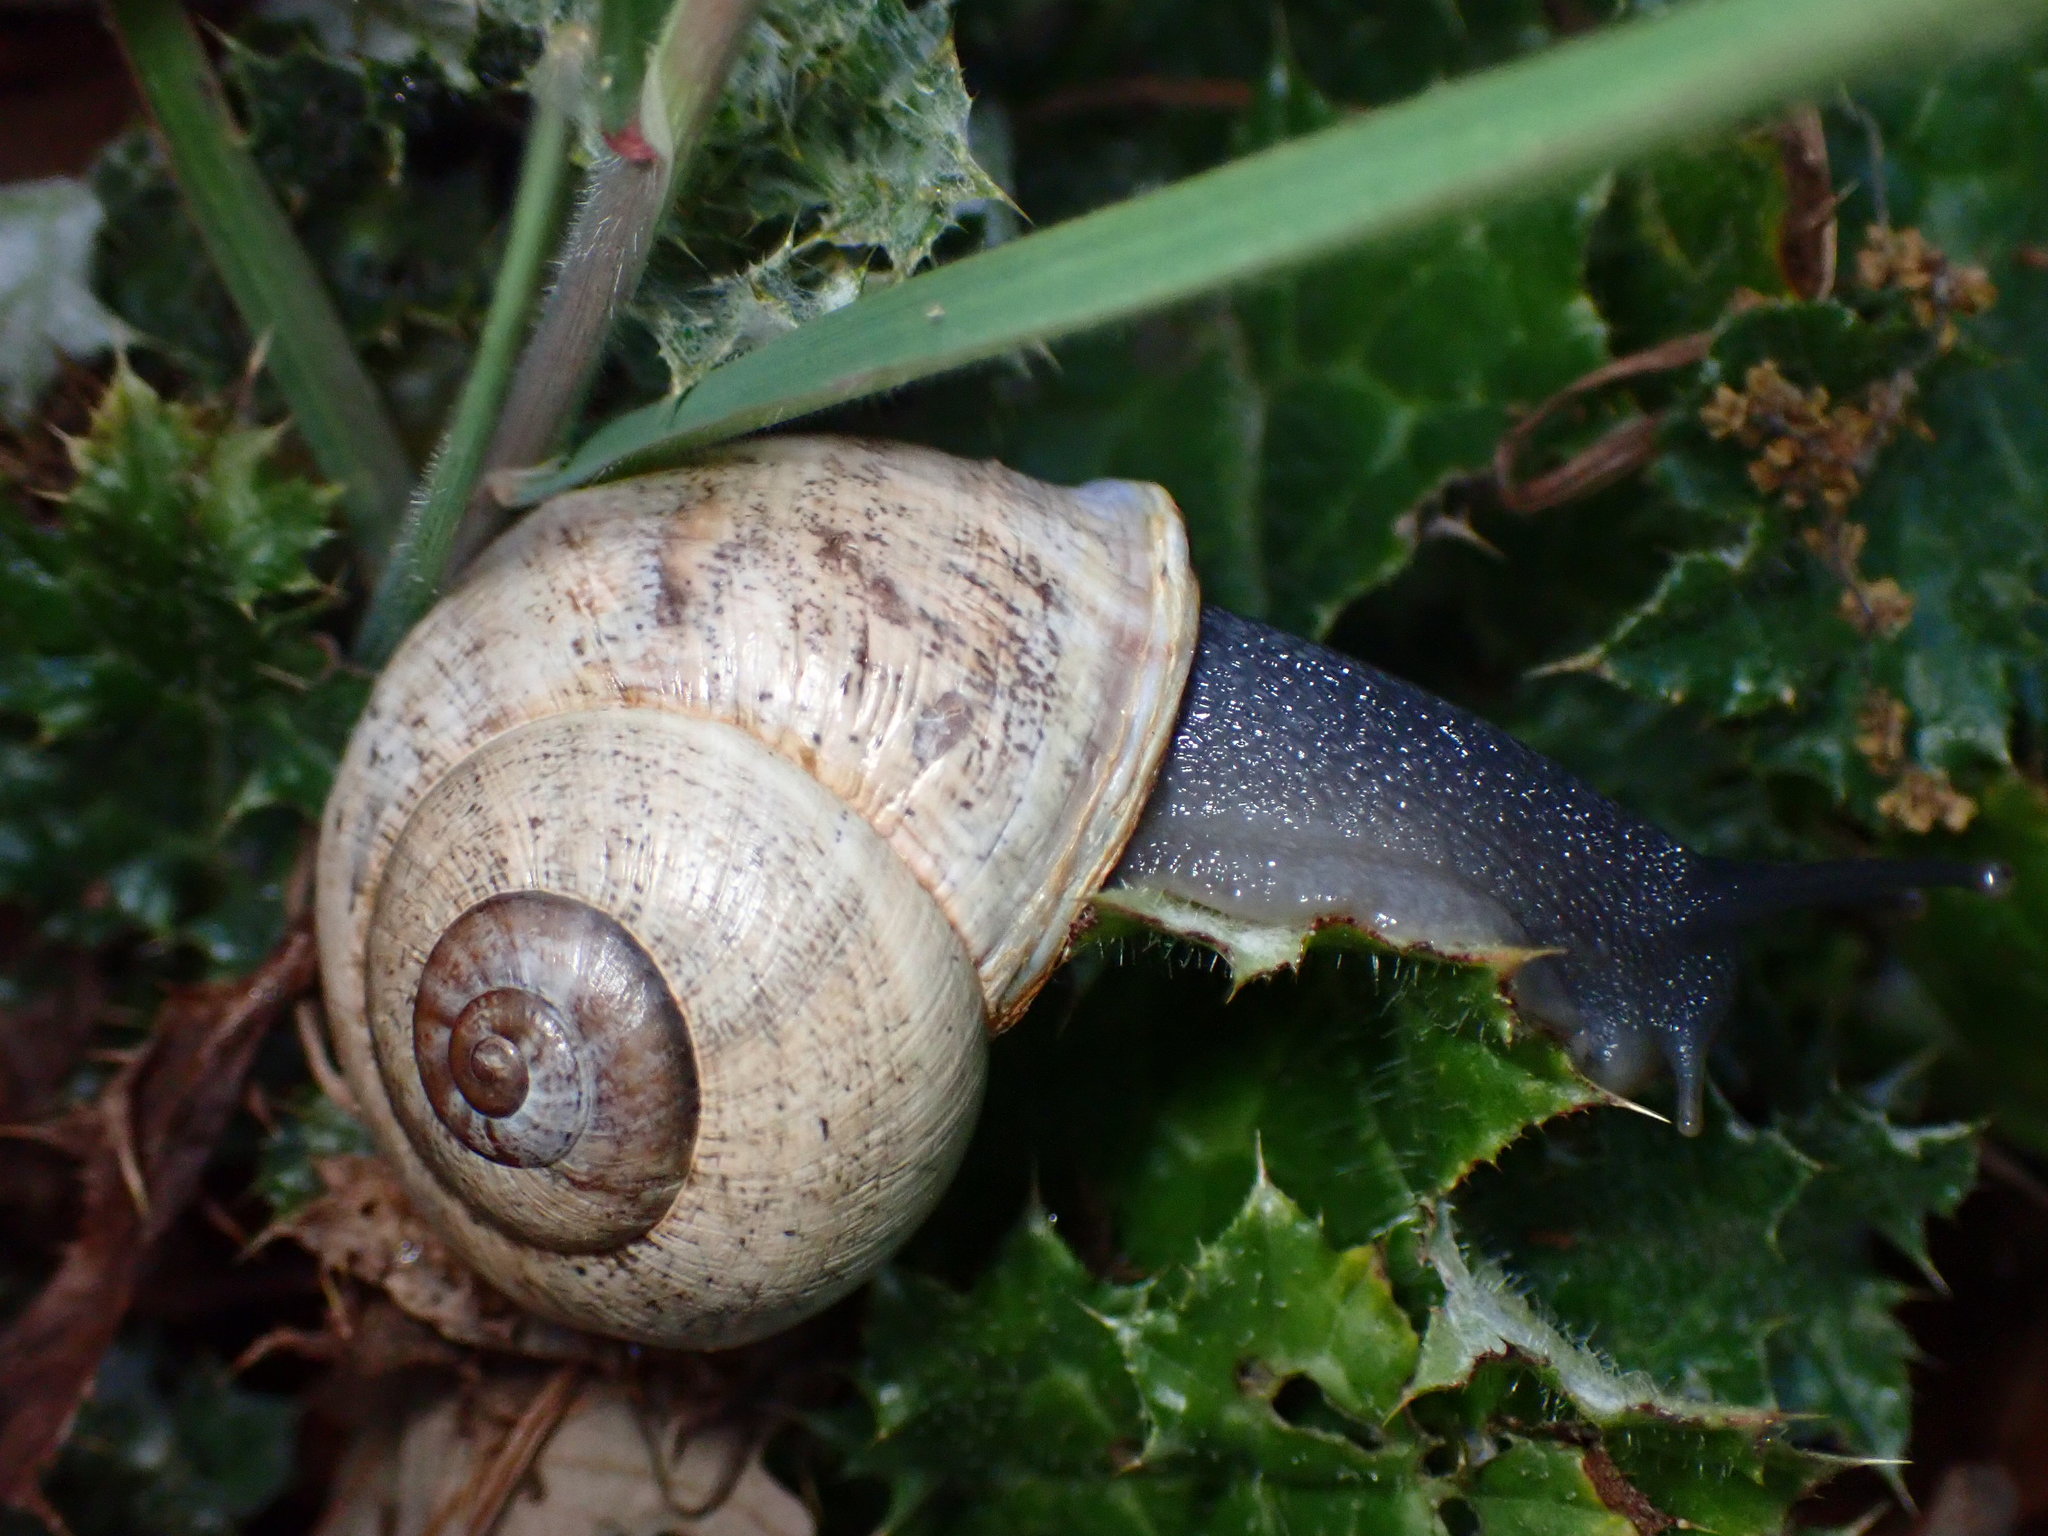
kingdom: Animalia
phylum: Mollusca
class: Gastropoda
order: Stylommatophora
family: Helicidae
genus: Otala
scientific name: Otala lactea
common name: Milk snail
